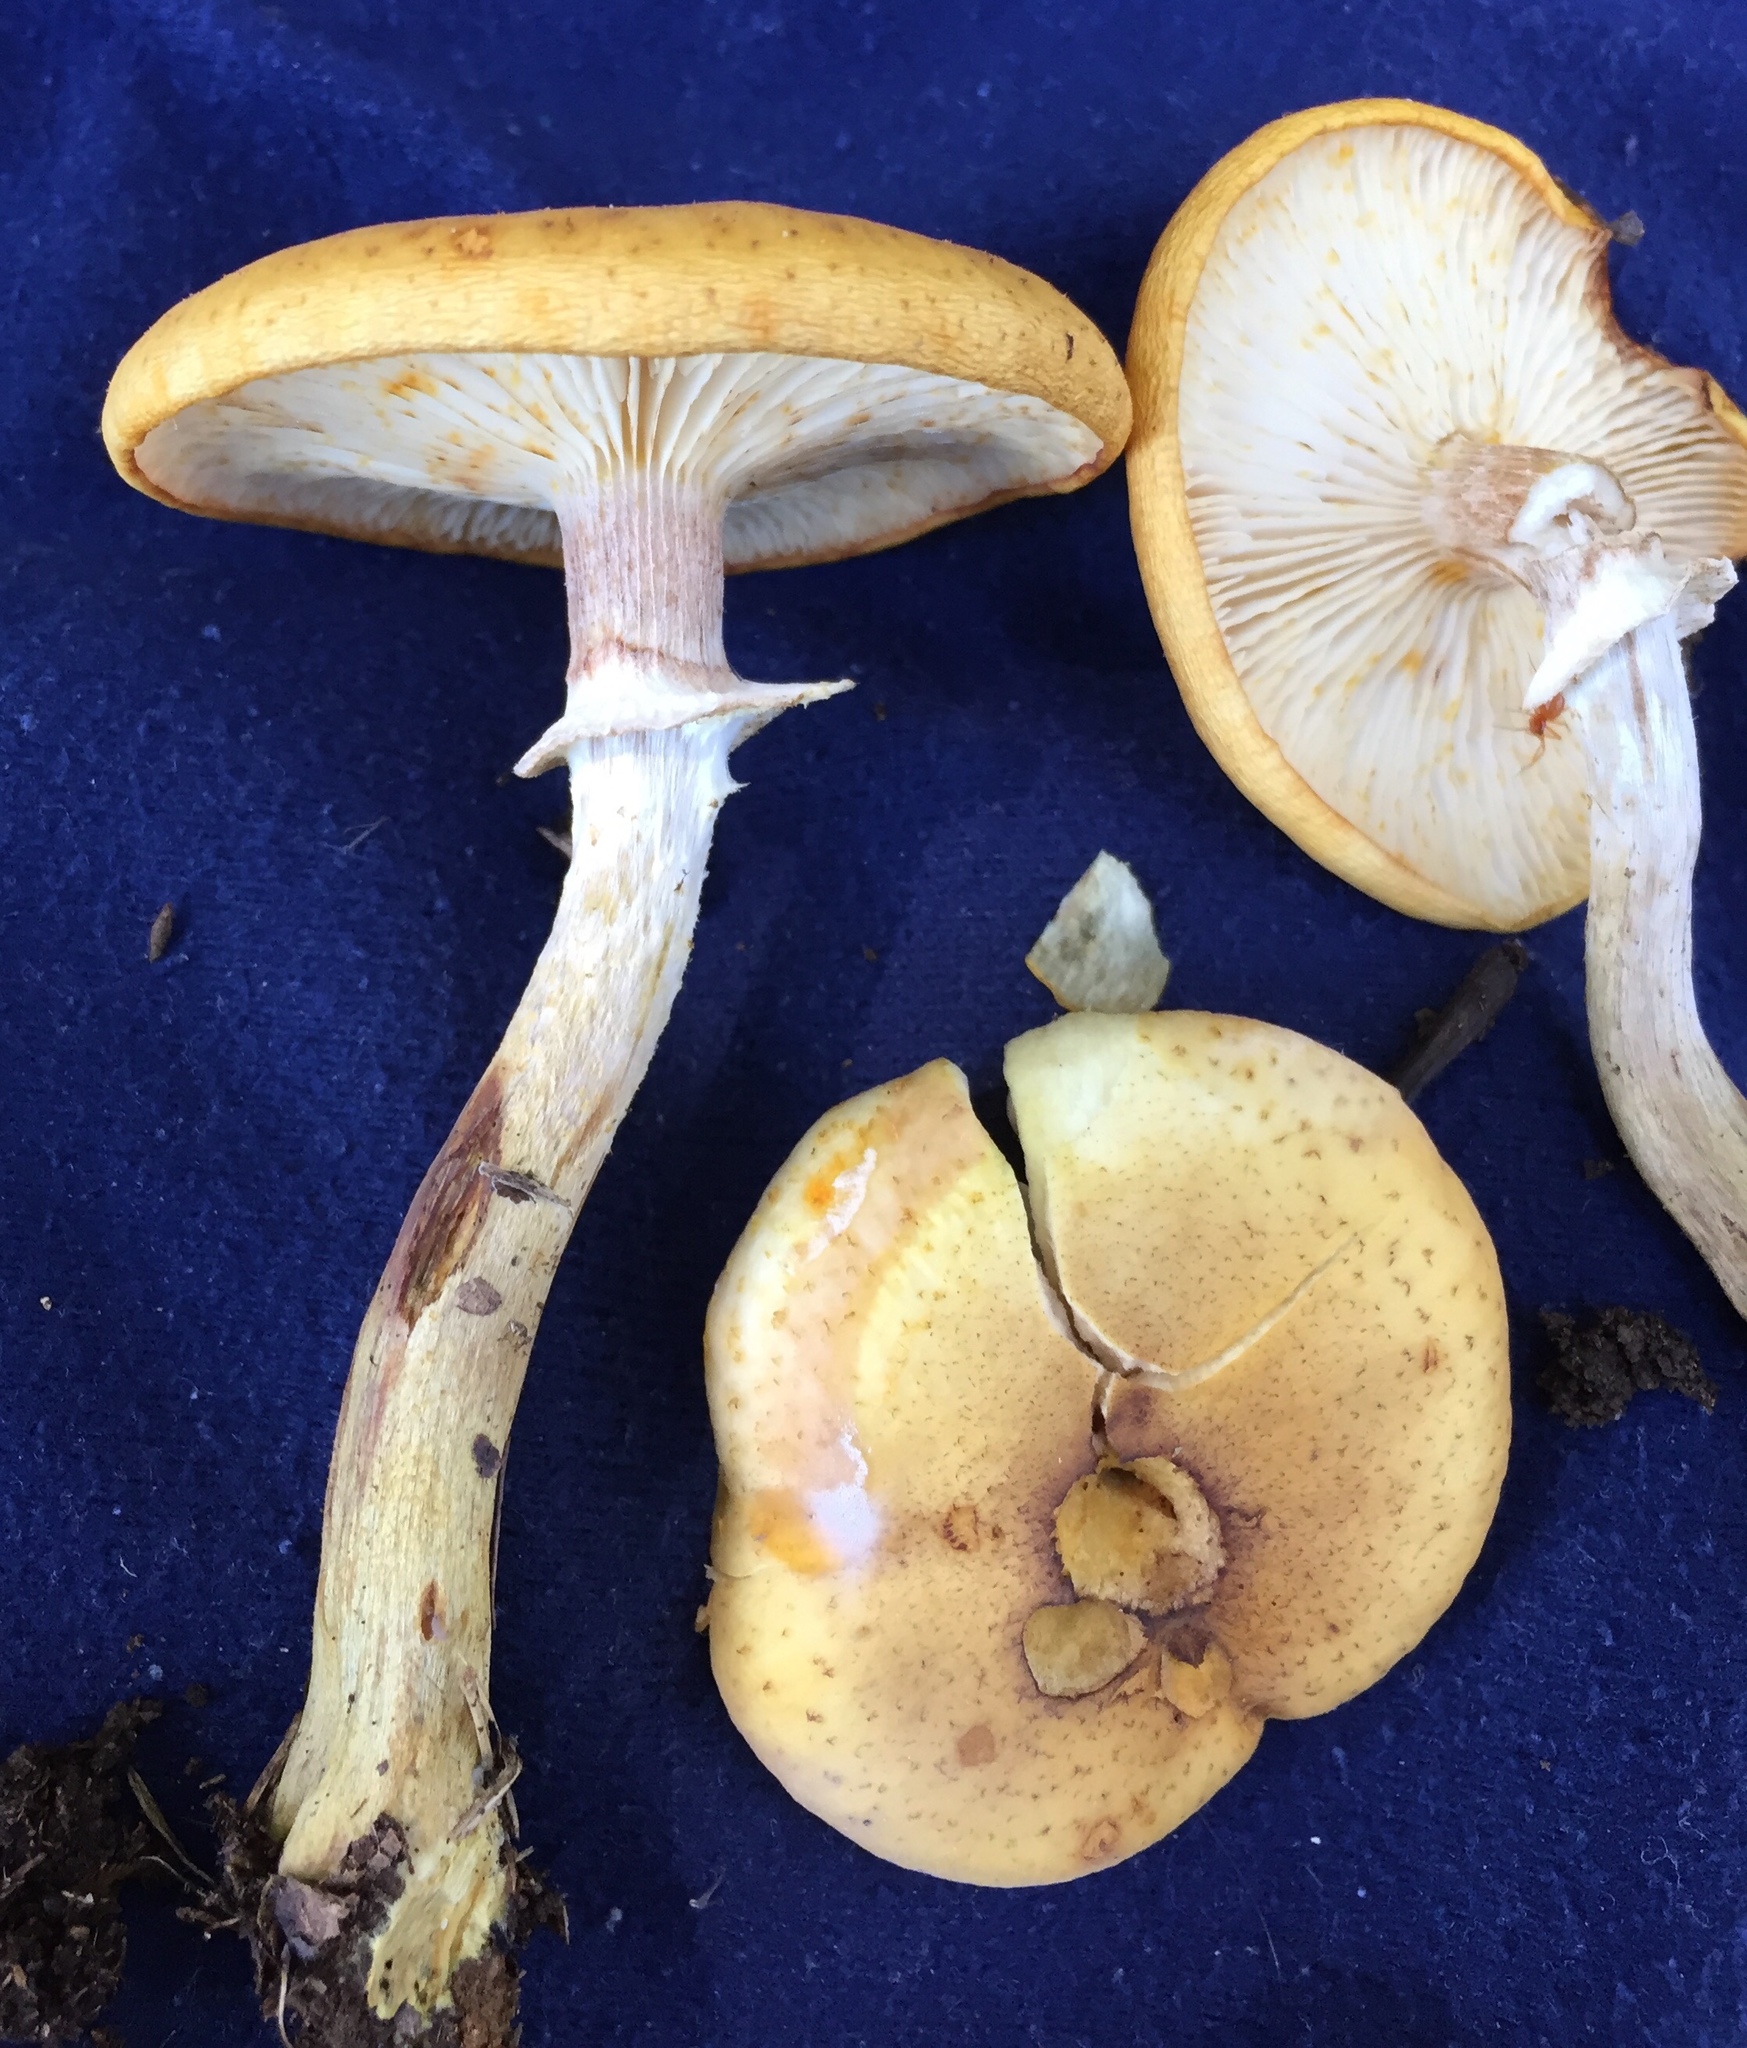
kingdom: Fungi
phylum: Basidiomycota
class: Agaricomycetes
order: Agaricales
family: Physalacriaceae
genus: Armillaria
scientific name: Armillaria mellea
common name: Honey fungus
